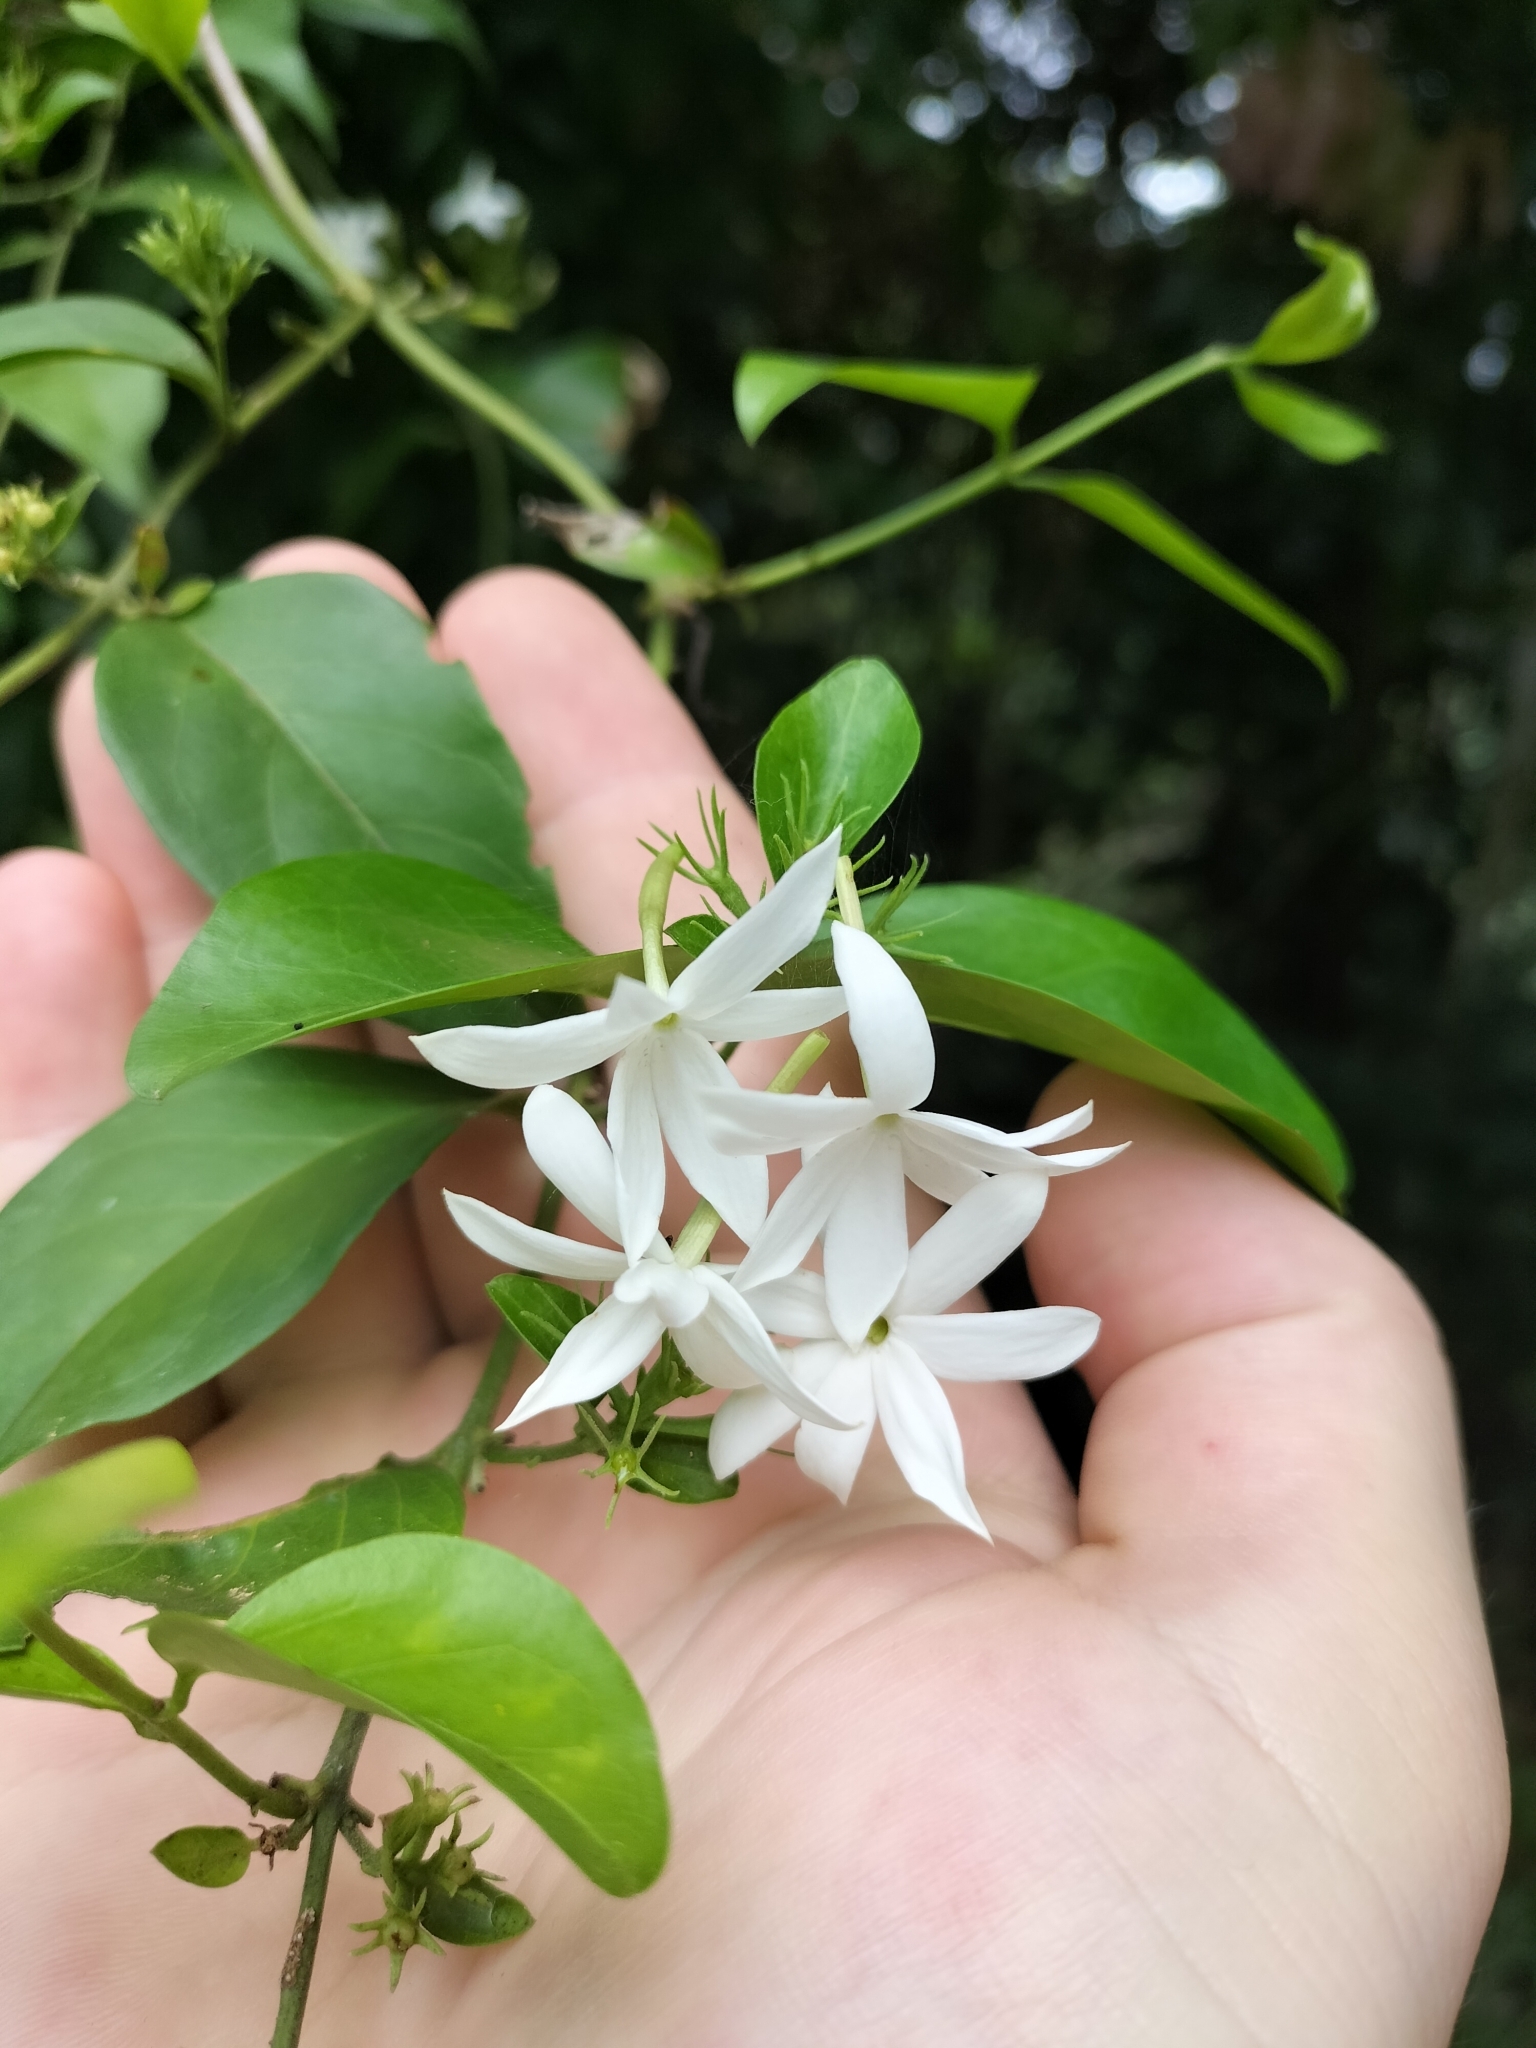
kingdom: Plantae
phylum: Tracheophyta
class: Magnoliopsida
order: Lamiales
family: Oleaceae
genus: Jasminum
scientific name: Jasminum elongatum
